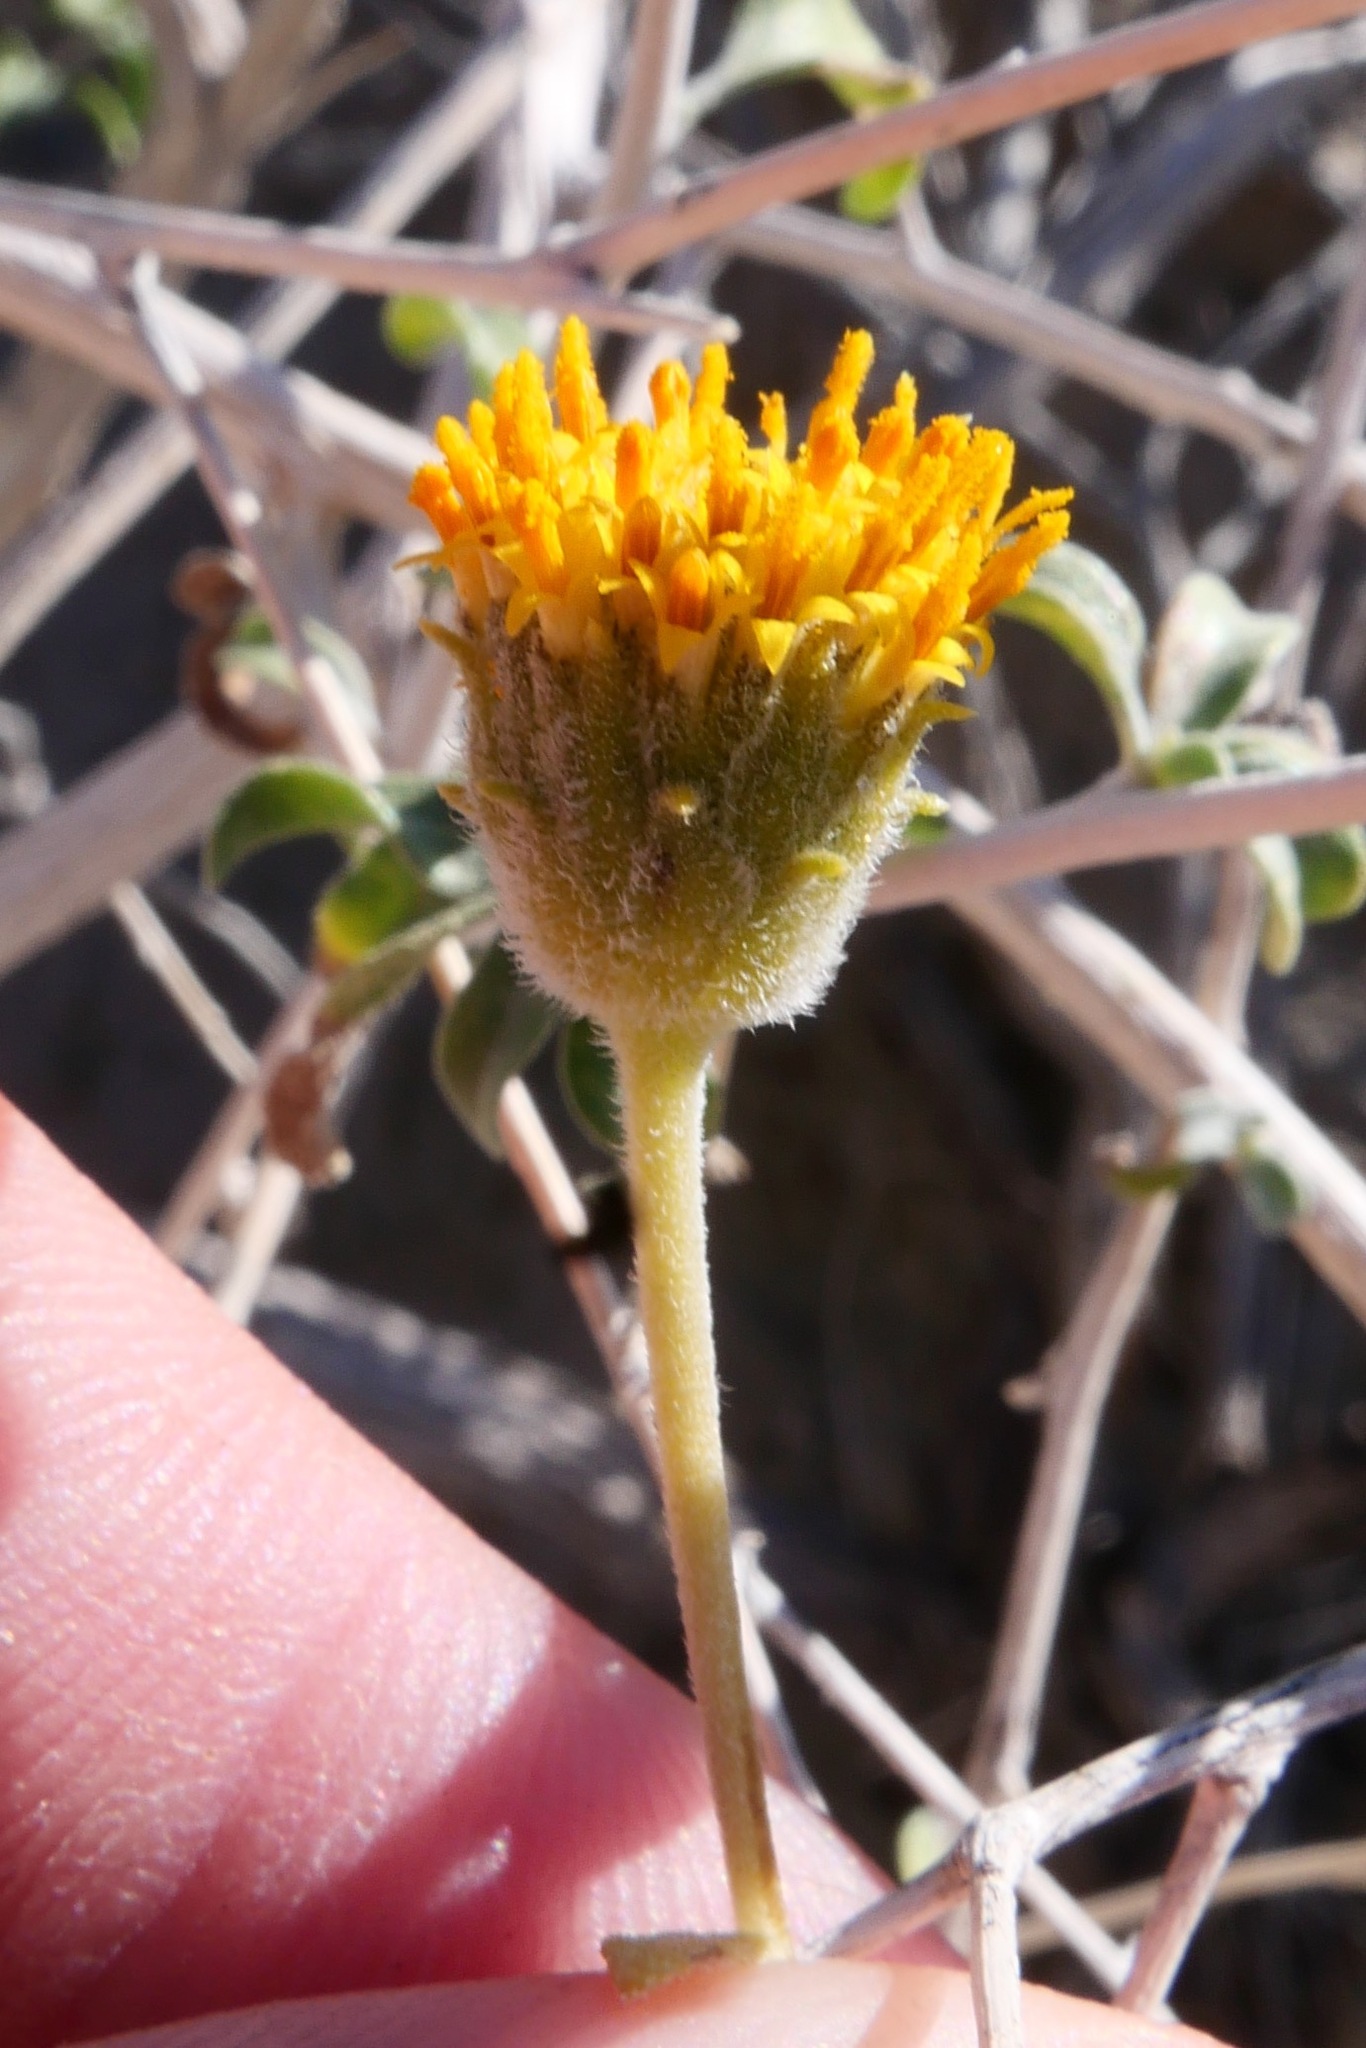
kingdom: Plantae
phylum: Tracheophyta
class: Magnoliopsida
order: Asterales
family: Asteraceae
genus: Encelia
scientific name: Encelia frutescens
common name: Bush encelia
